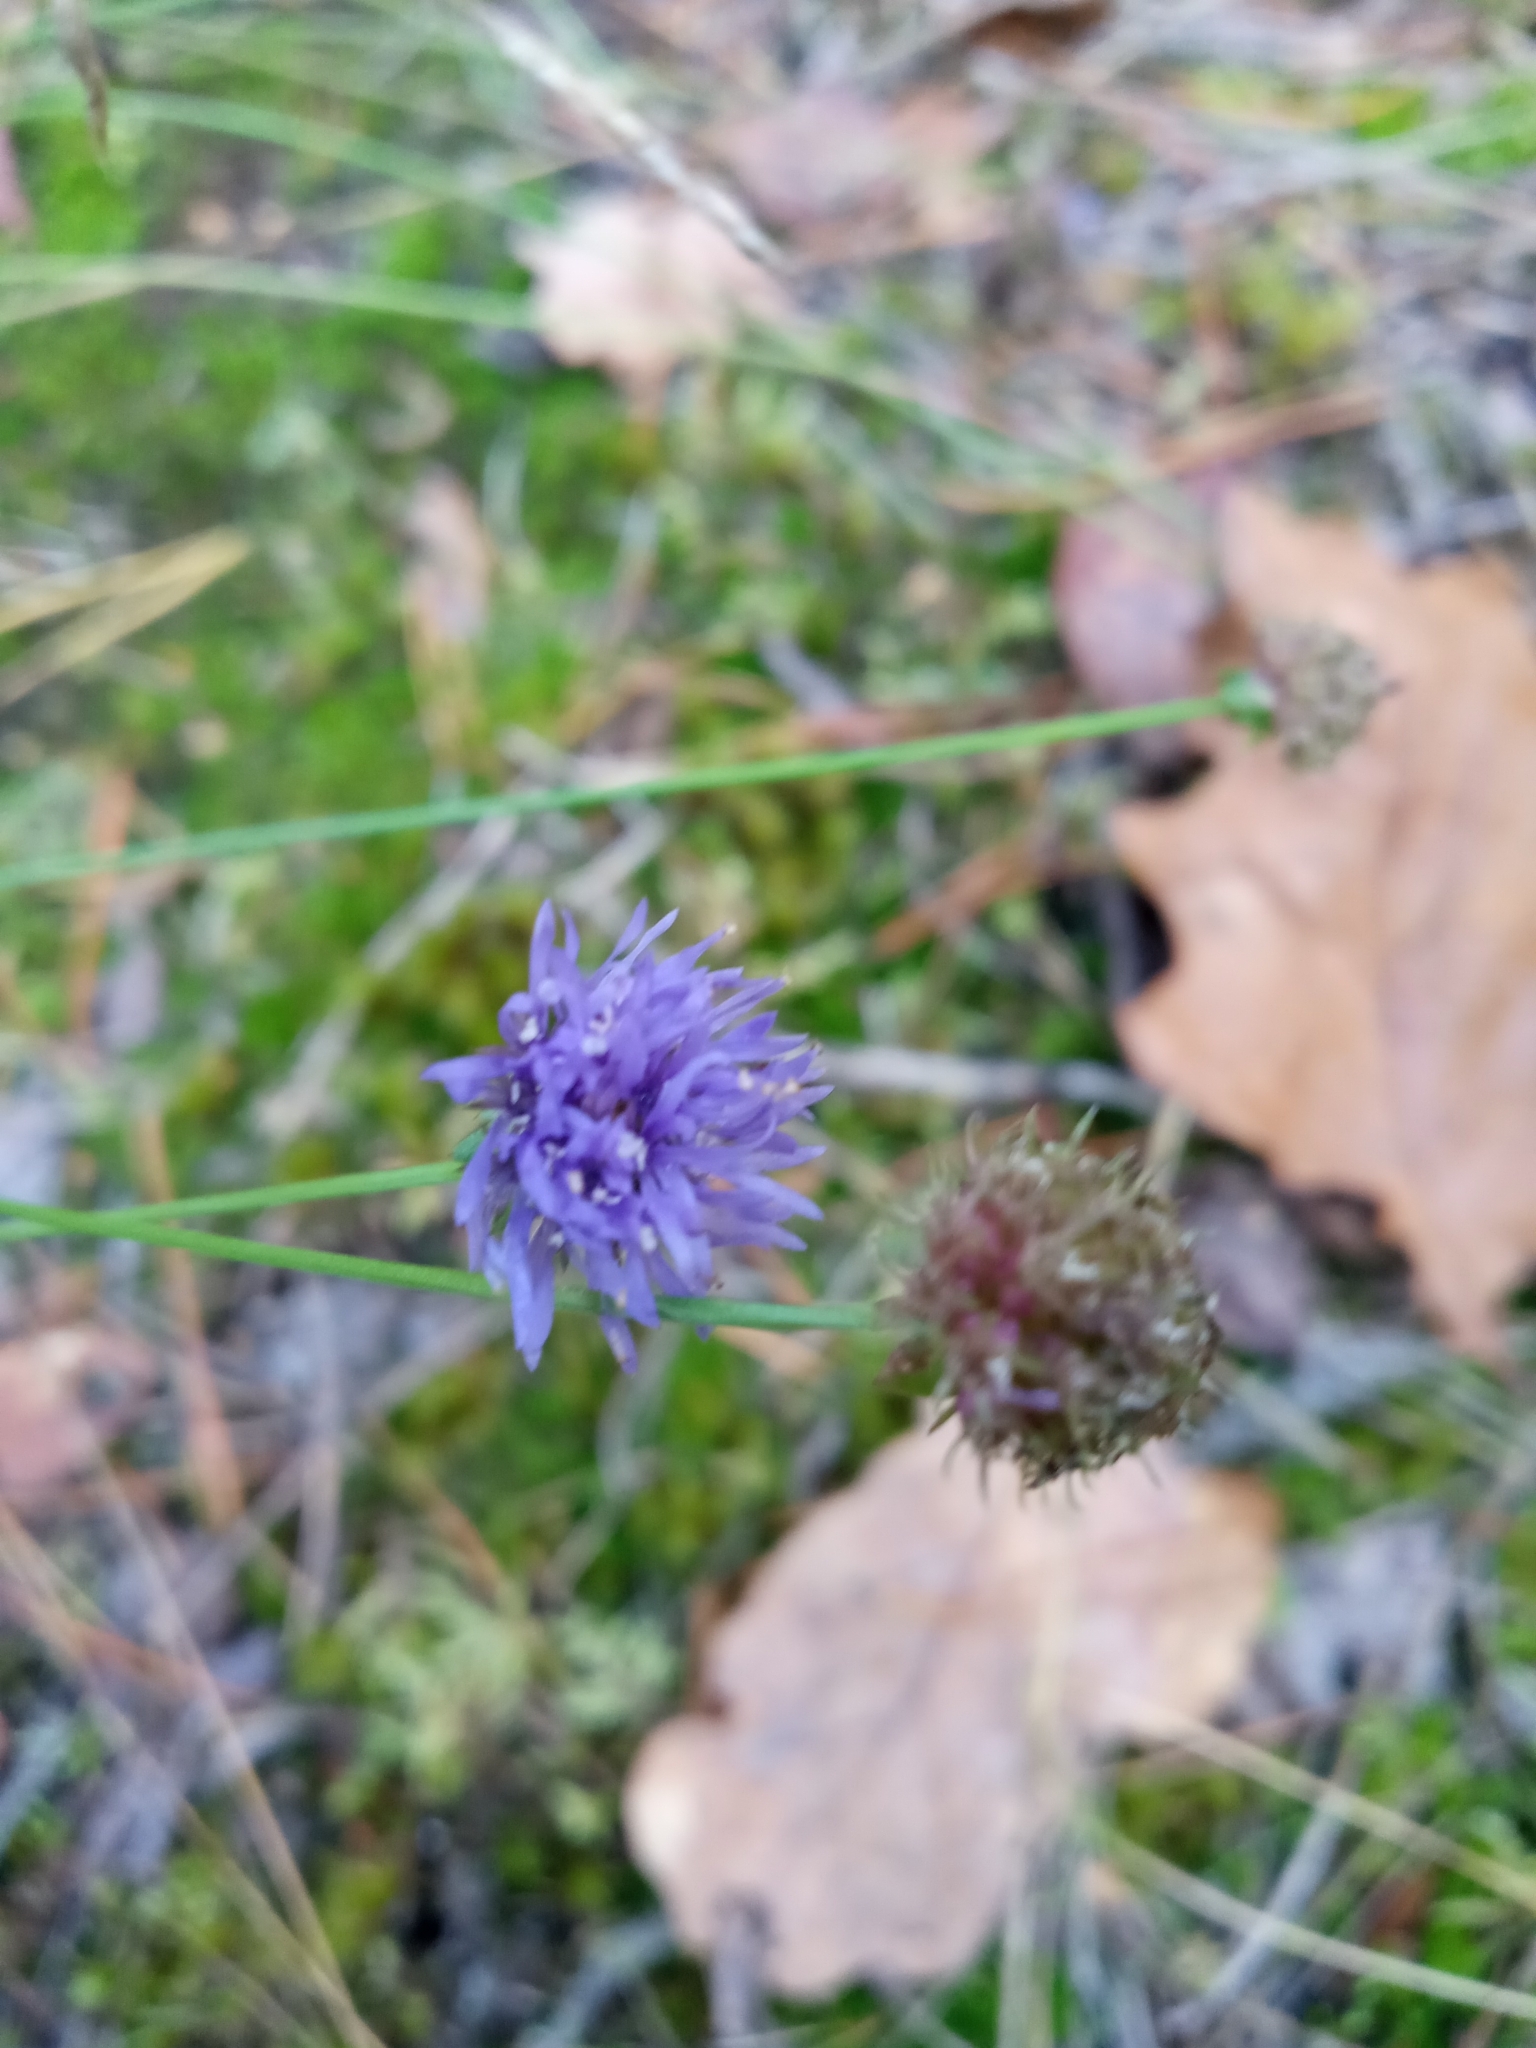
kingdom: Plantae
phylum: Tracheophyta
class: Magnoliopsida
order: Asterales
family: Campanulaceae
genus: Jasione
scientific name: Jasione montana
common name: Sheep's-bit
